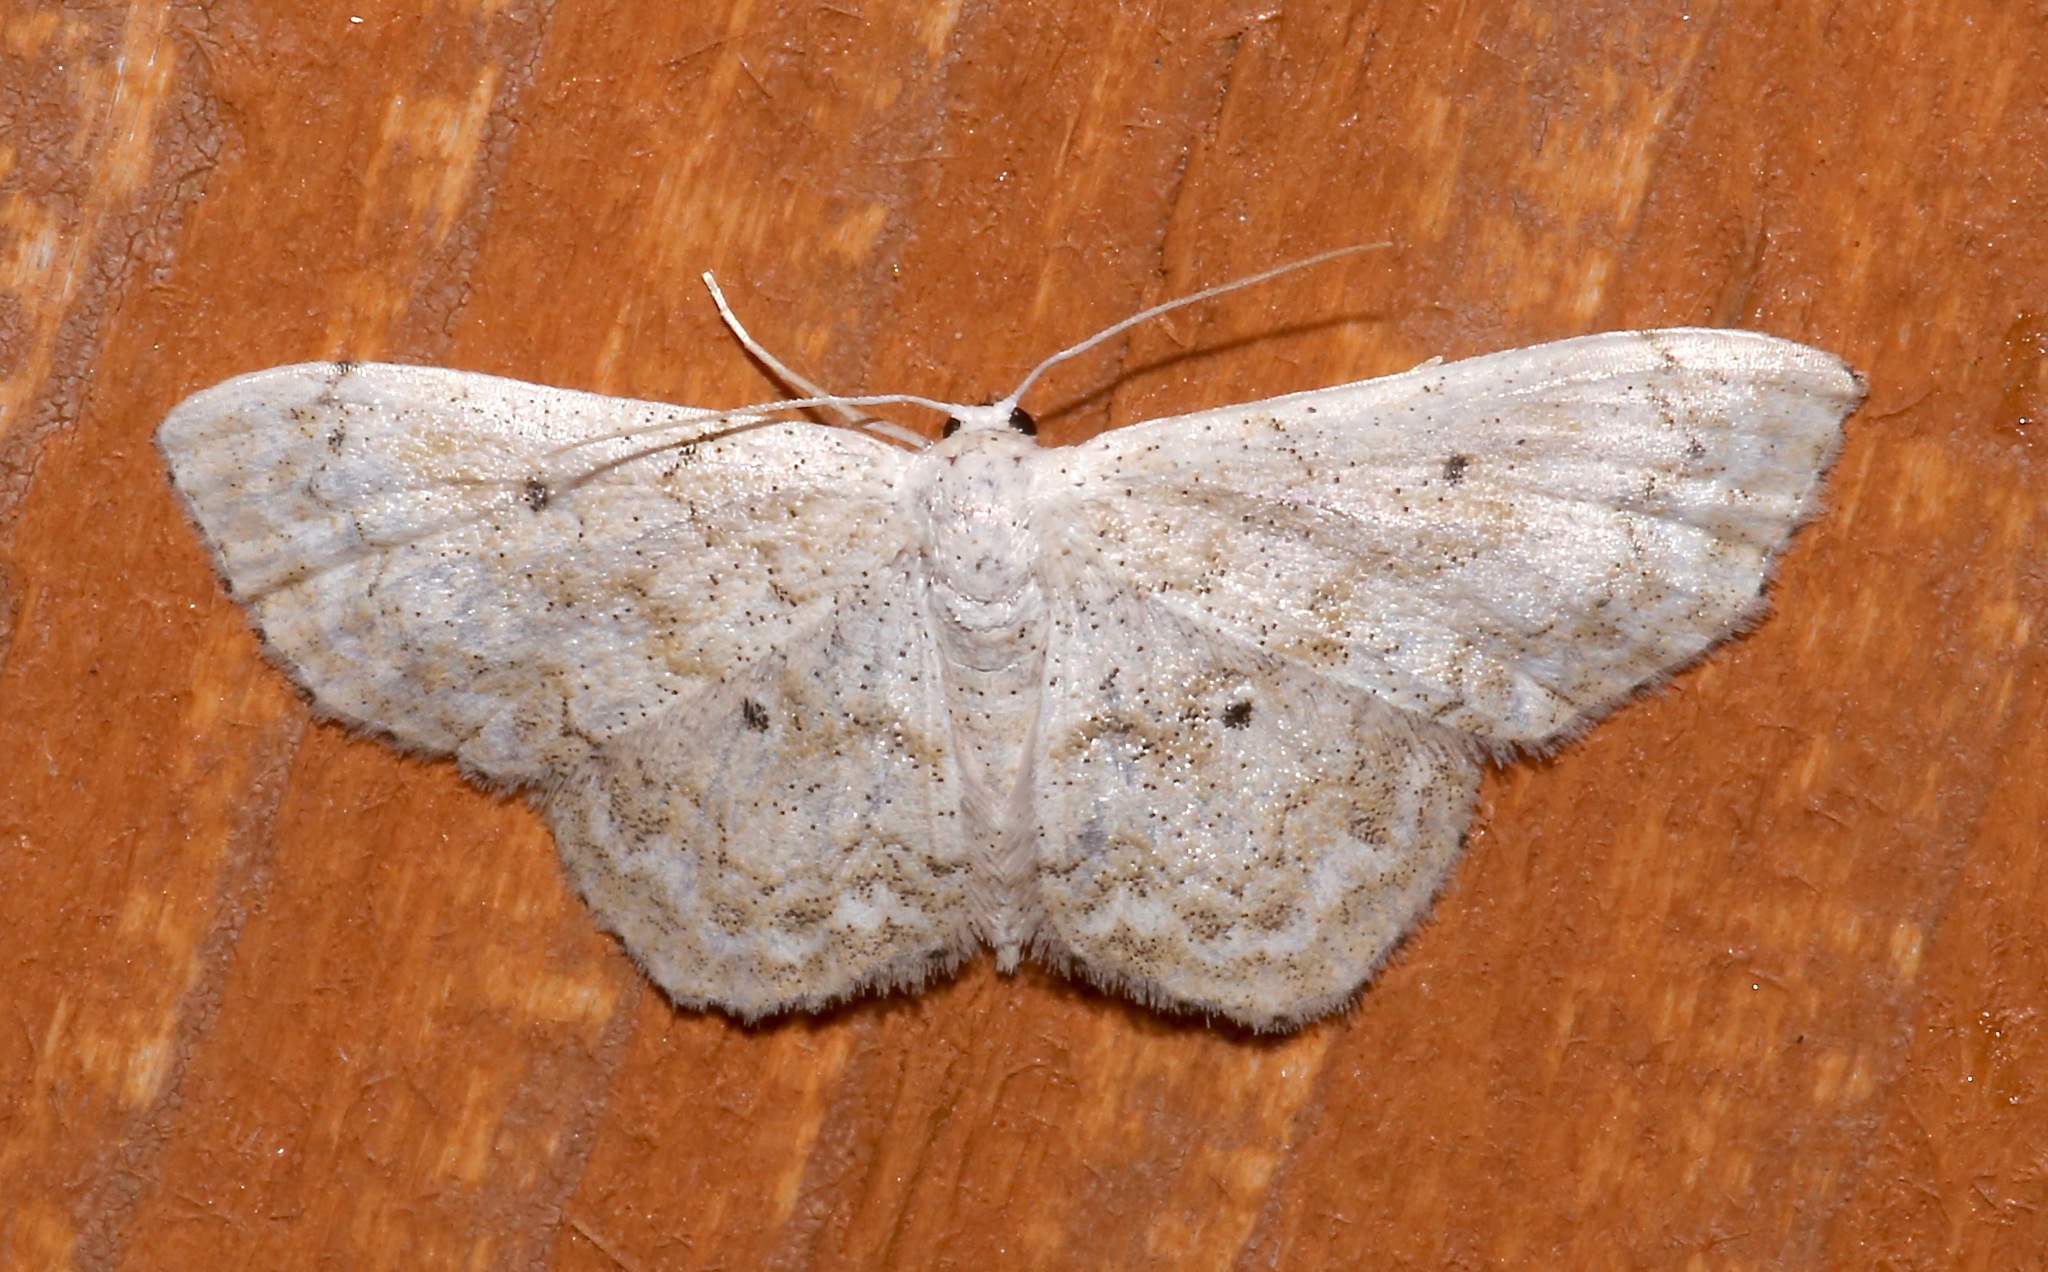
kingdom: Animalia
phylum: Arthropoda
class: Insecta
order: Lepidoptera
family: Geometridae
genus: Idaea
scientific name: Idaea obfusaria
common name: Rippled wave
